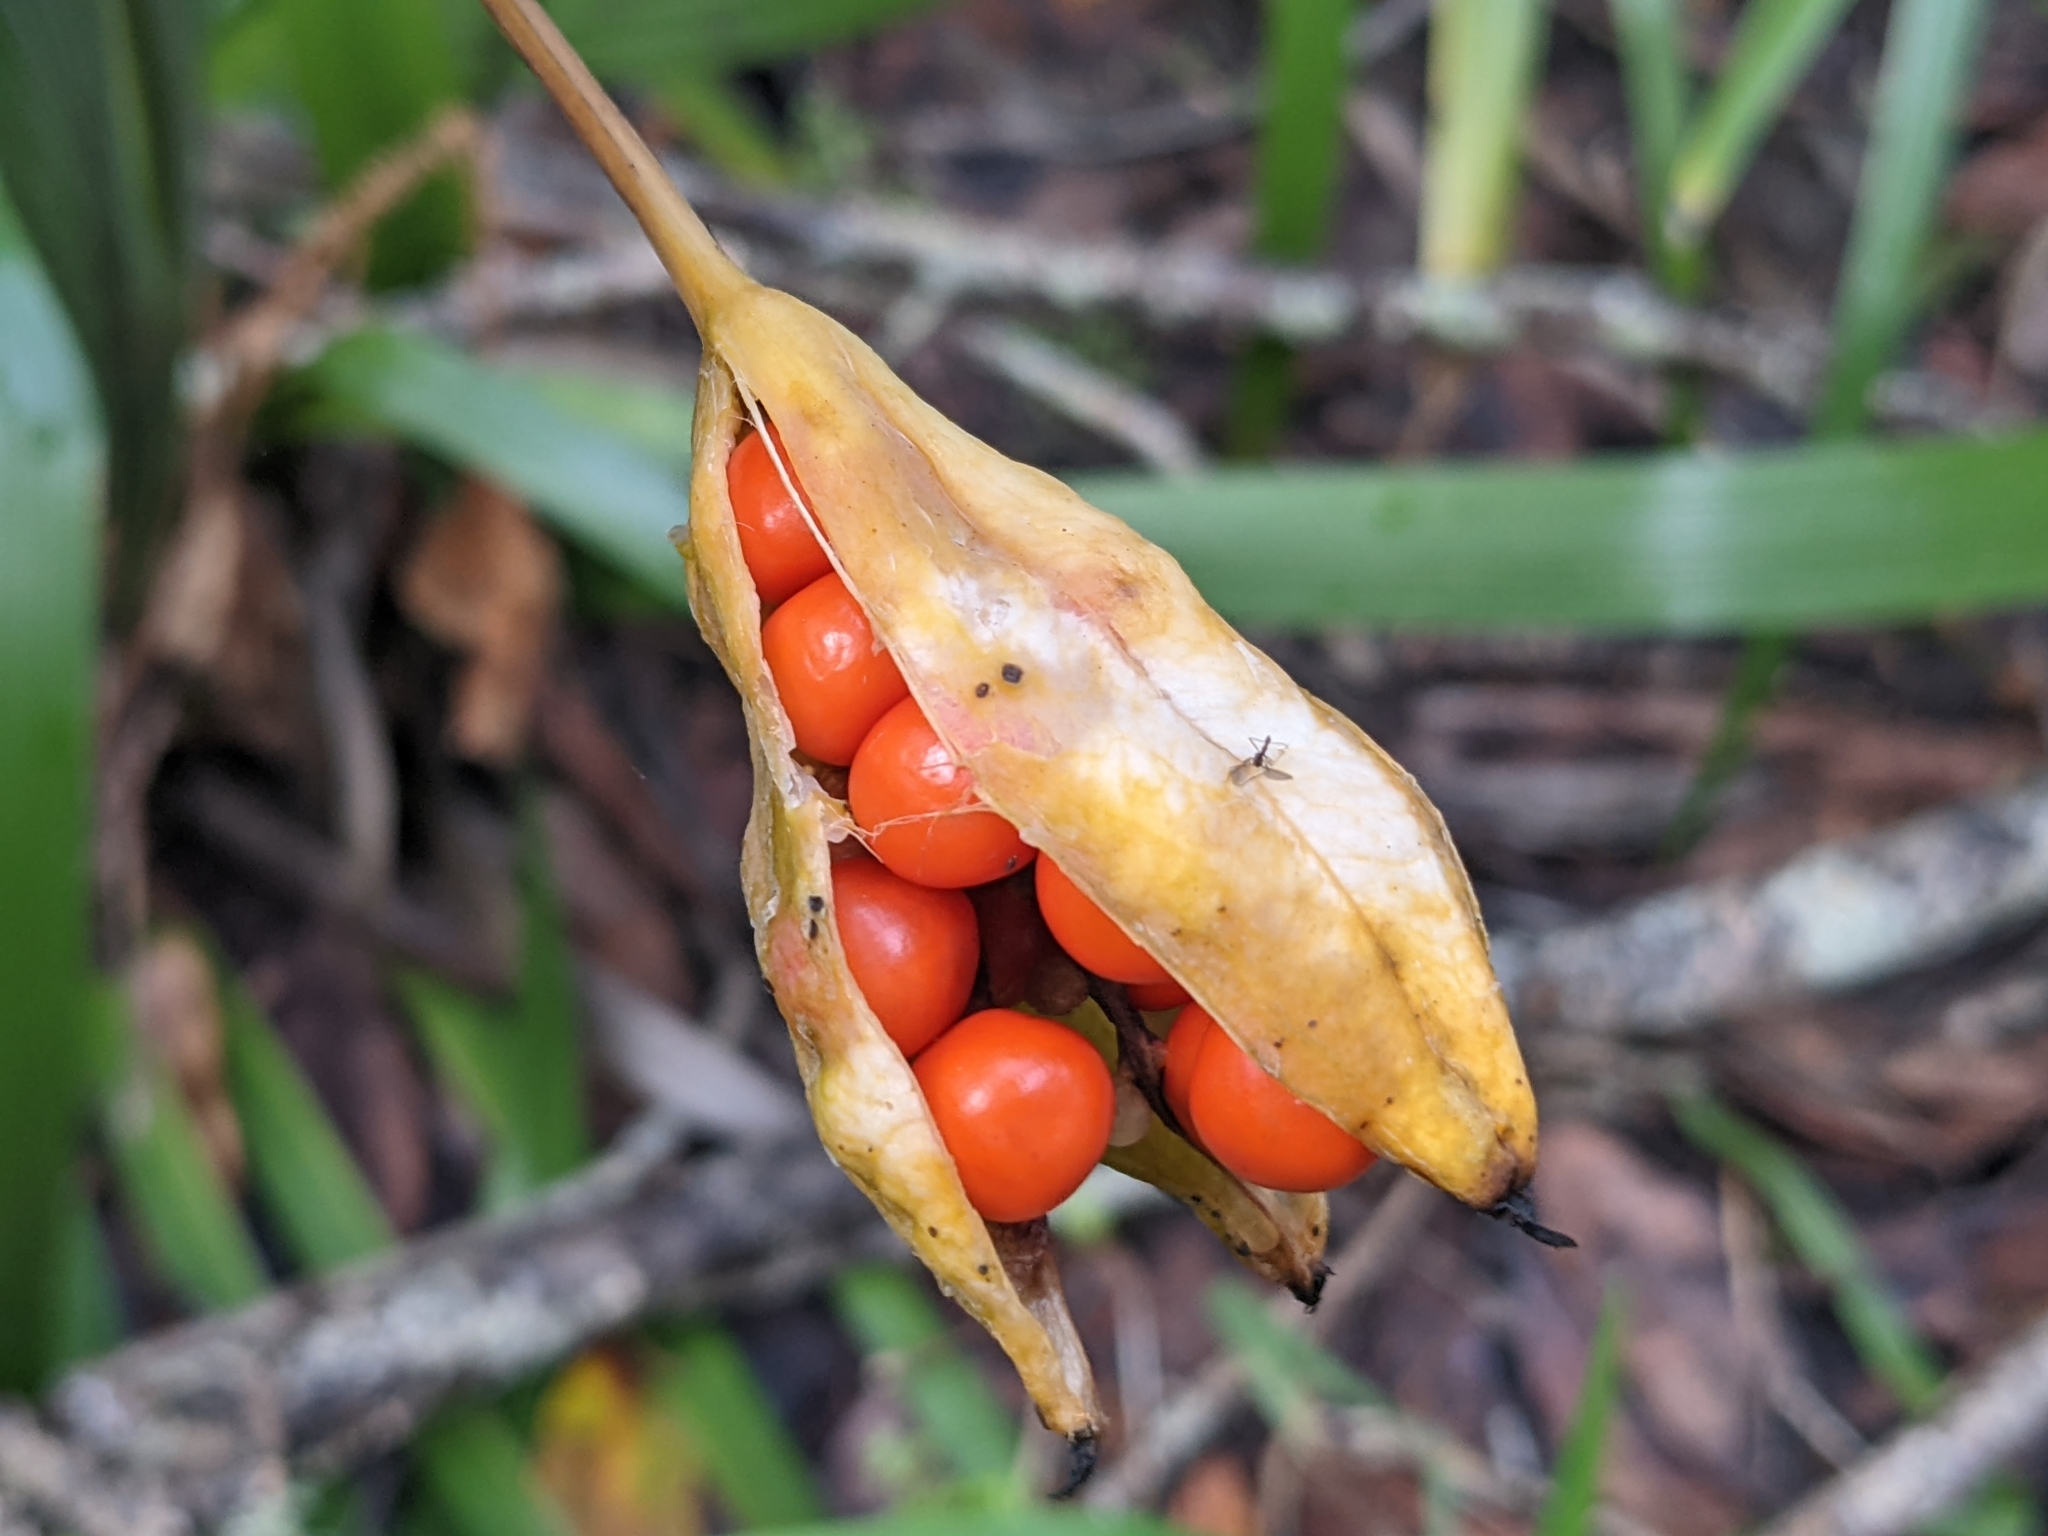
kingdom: Plantae
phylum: Tracheophyta
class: Liliopsida
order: Asparagales
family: Iridaceae
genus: Iris
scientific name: Iris foetidissima
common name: Stinking iris
